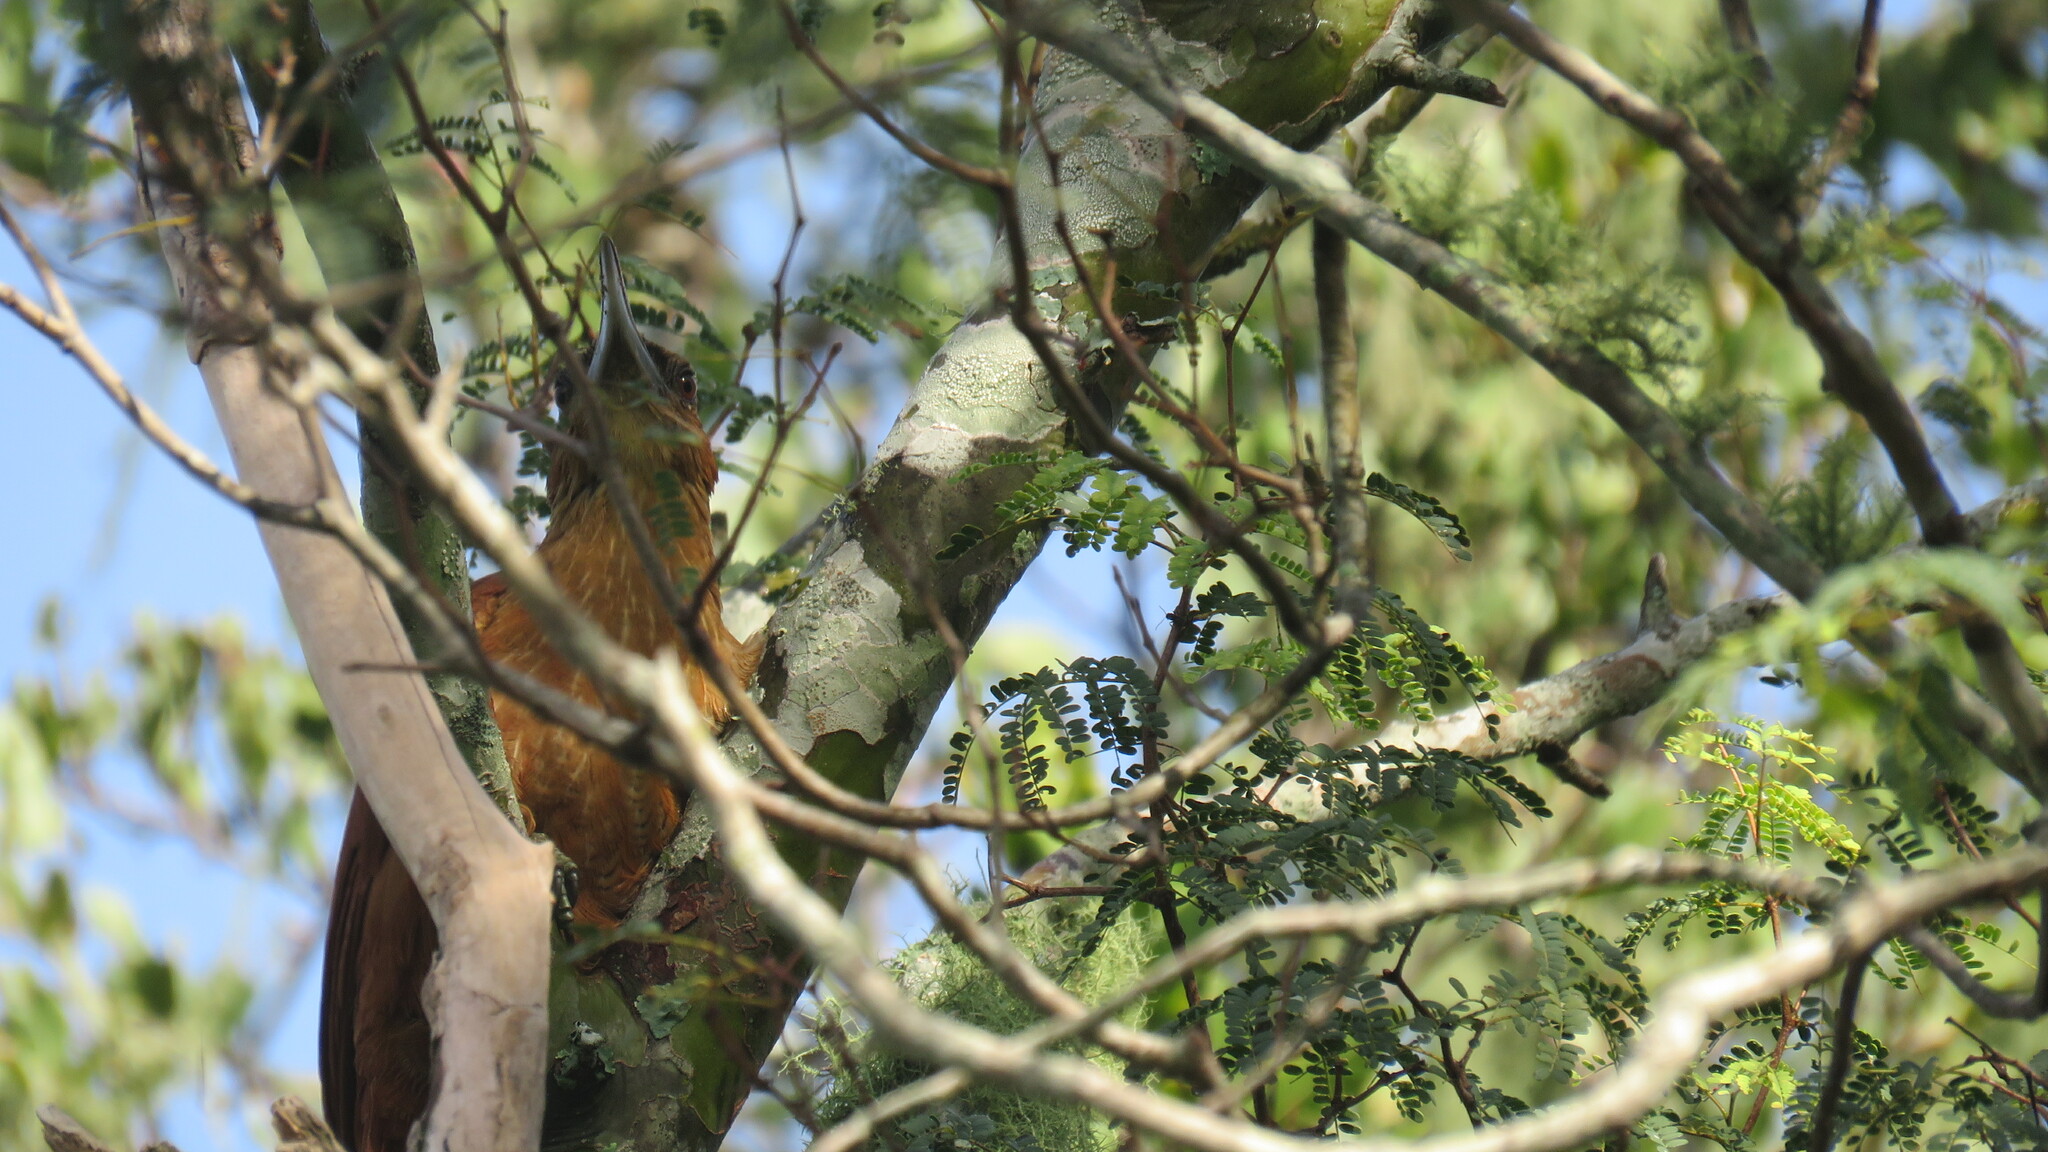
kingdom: Animalia
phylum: Chordata
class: Aves
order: Passeriformes
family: Furnariidae
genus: Xiphocolaptes
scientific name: Xiphocolaptes major
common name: Great rufous woodcreeper
